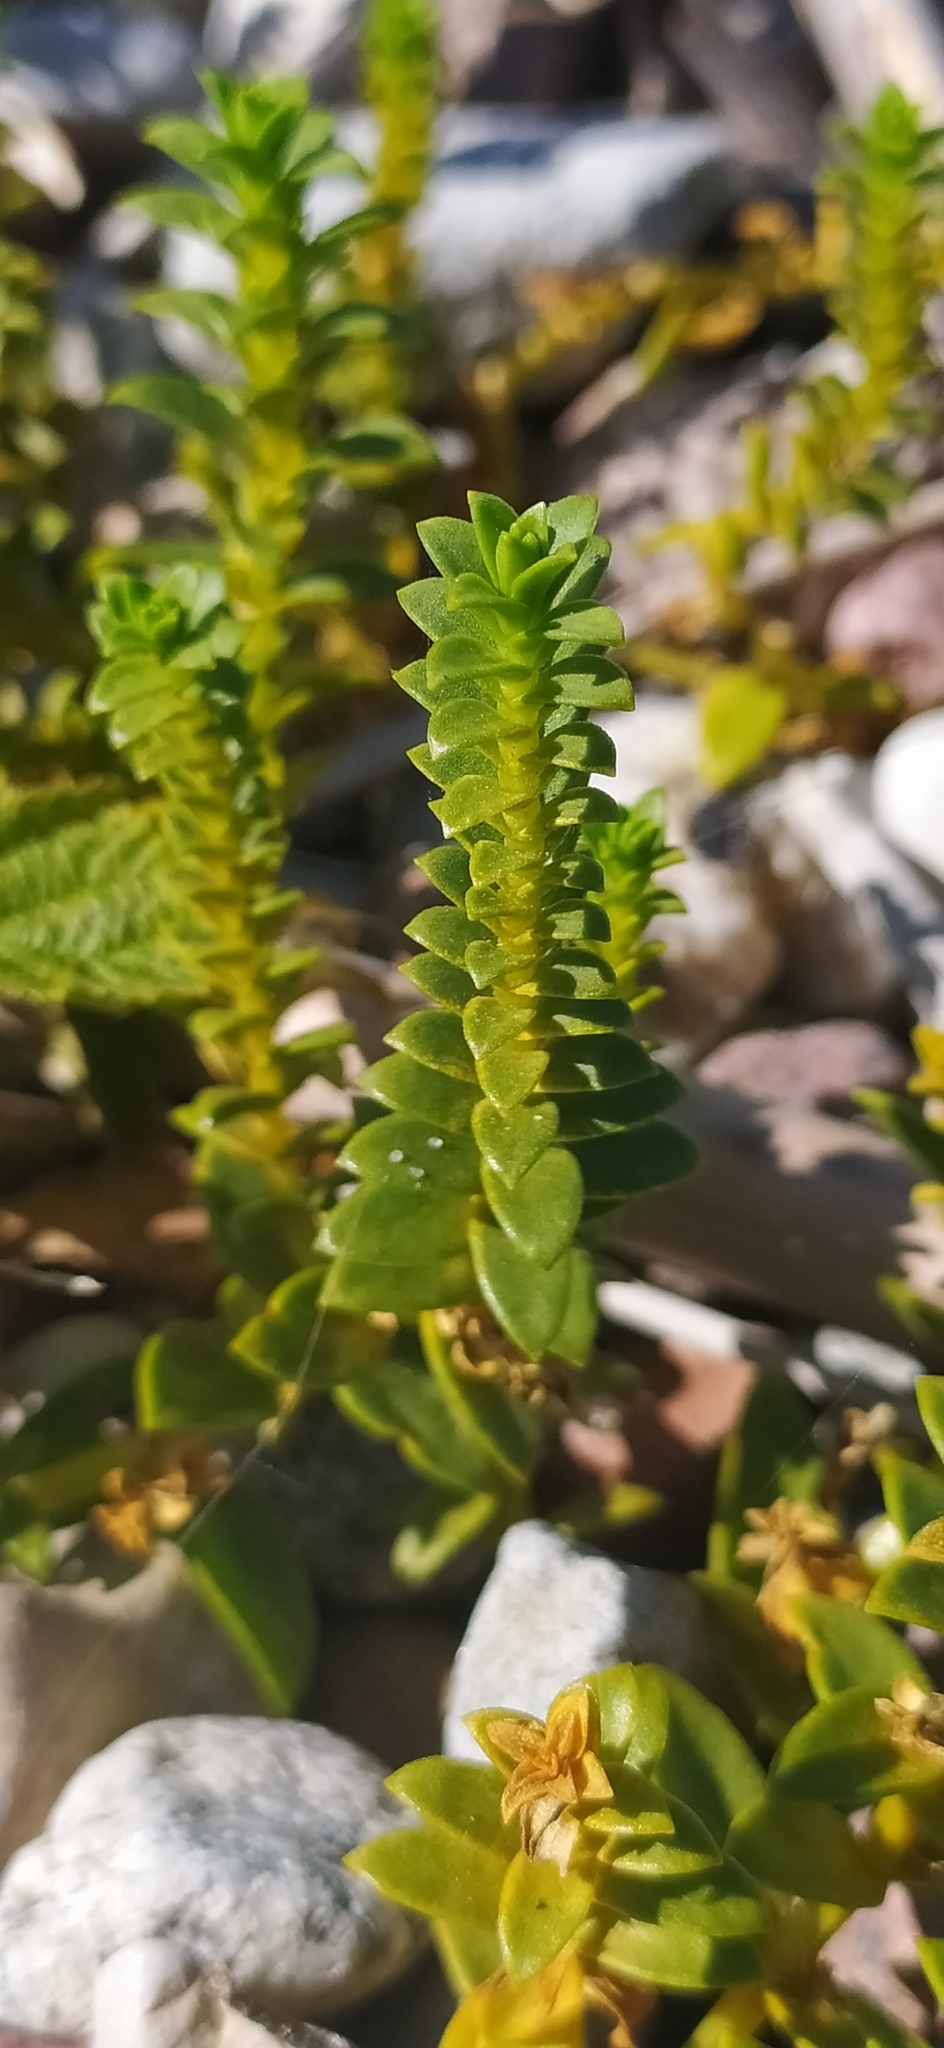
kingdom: Plantae
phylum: Tracheophyta
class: Magnoliopsida
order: Caryophyllales
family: Caryophyllaceae
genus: Honckenya
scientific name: Honckenya peploides
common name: Sea sandwort
